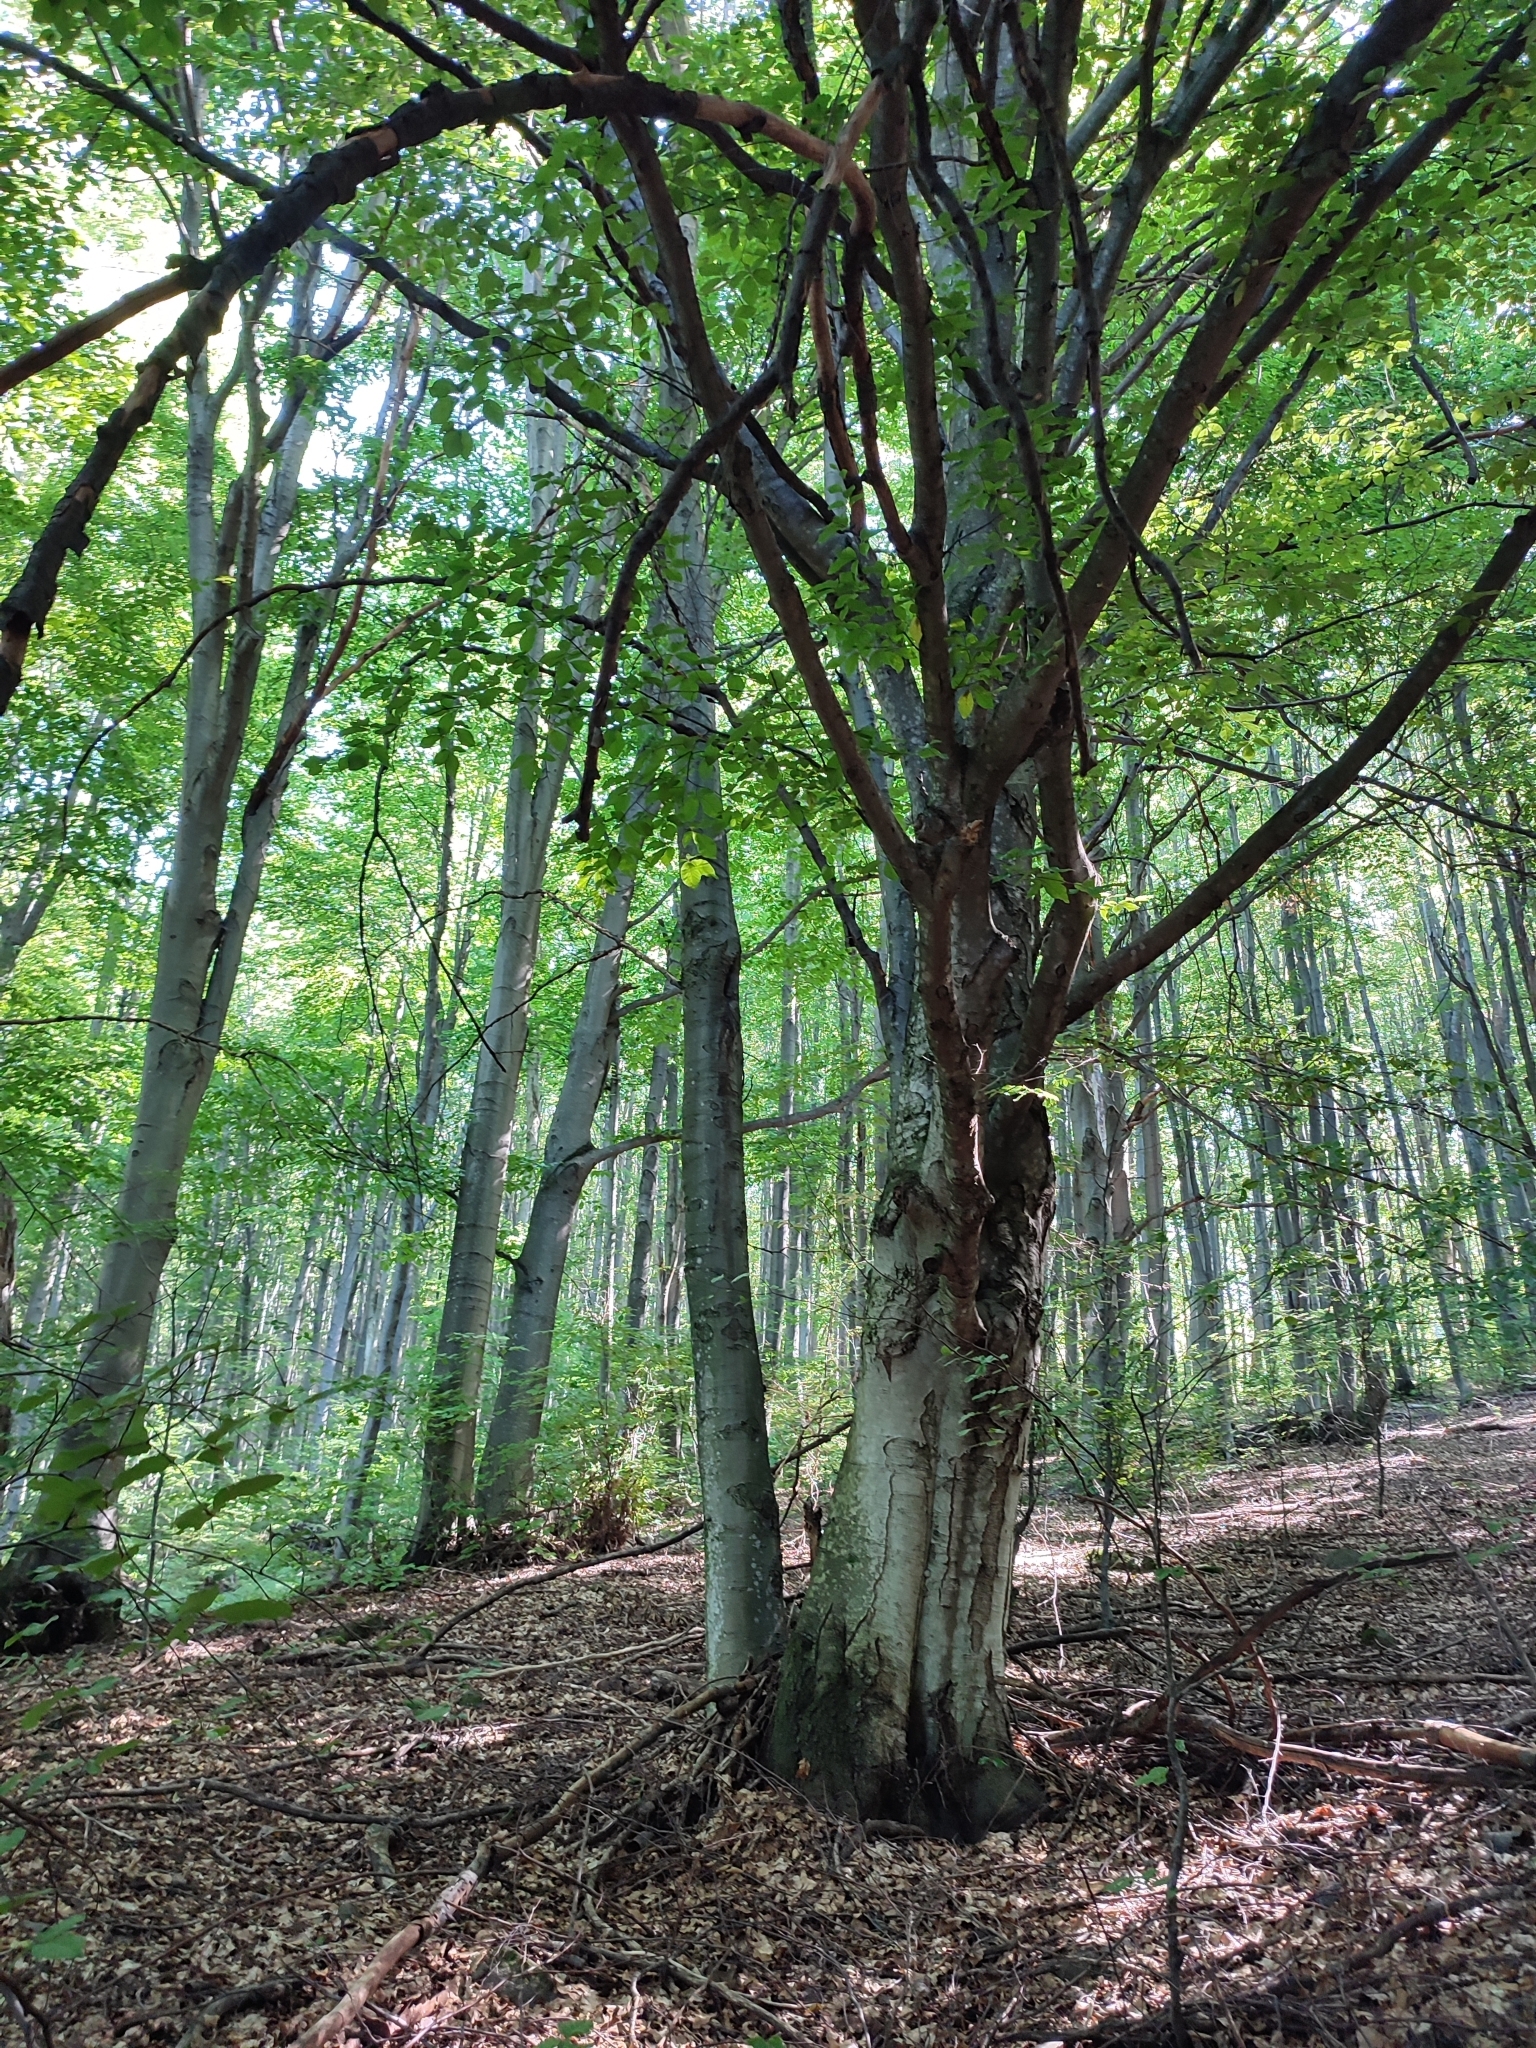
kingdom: Plantae
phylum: Tracheophyta
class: Magnoliopsida
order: Fagales
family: Fagaceae
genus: Fagus
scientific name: Fagus sylvatica
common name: Beech
